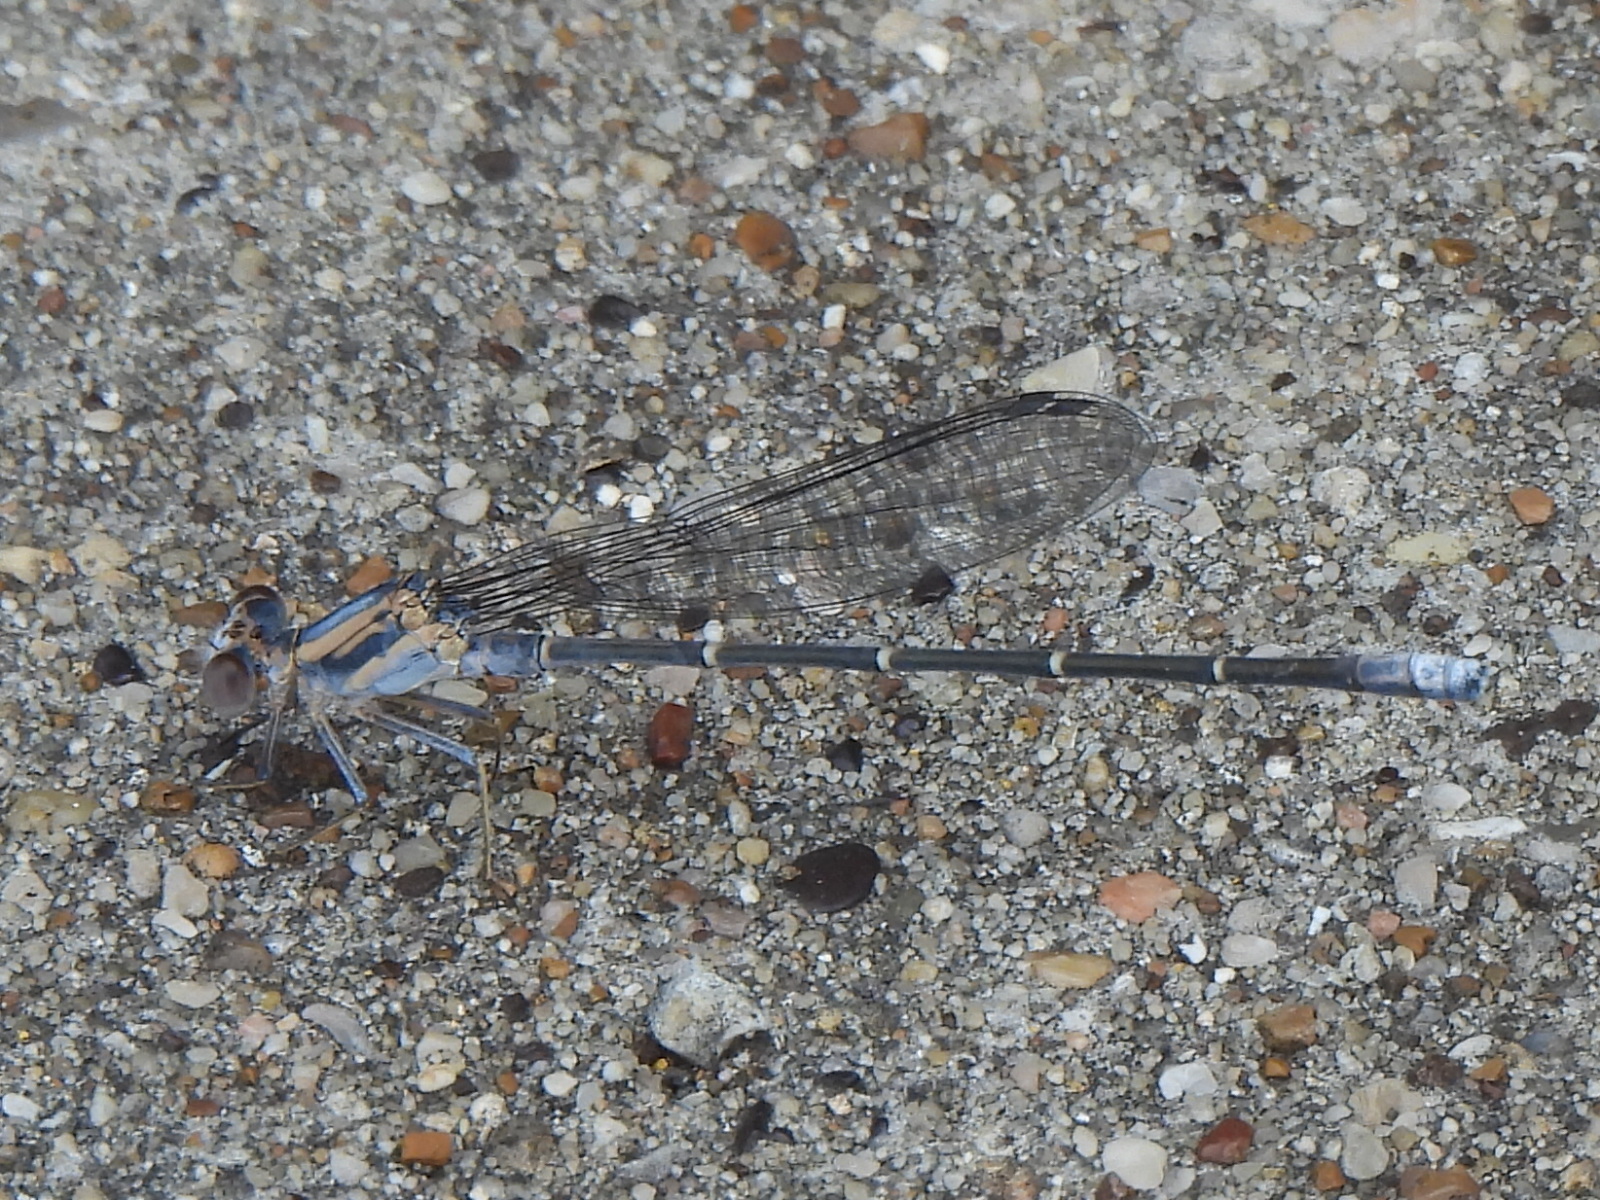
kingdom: Animalia
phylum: Arthropoda
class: Insecta
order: Odonata
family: Coenagrionidae
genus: Argia
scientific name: Argia moesta
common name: Powdered dancer
